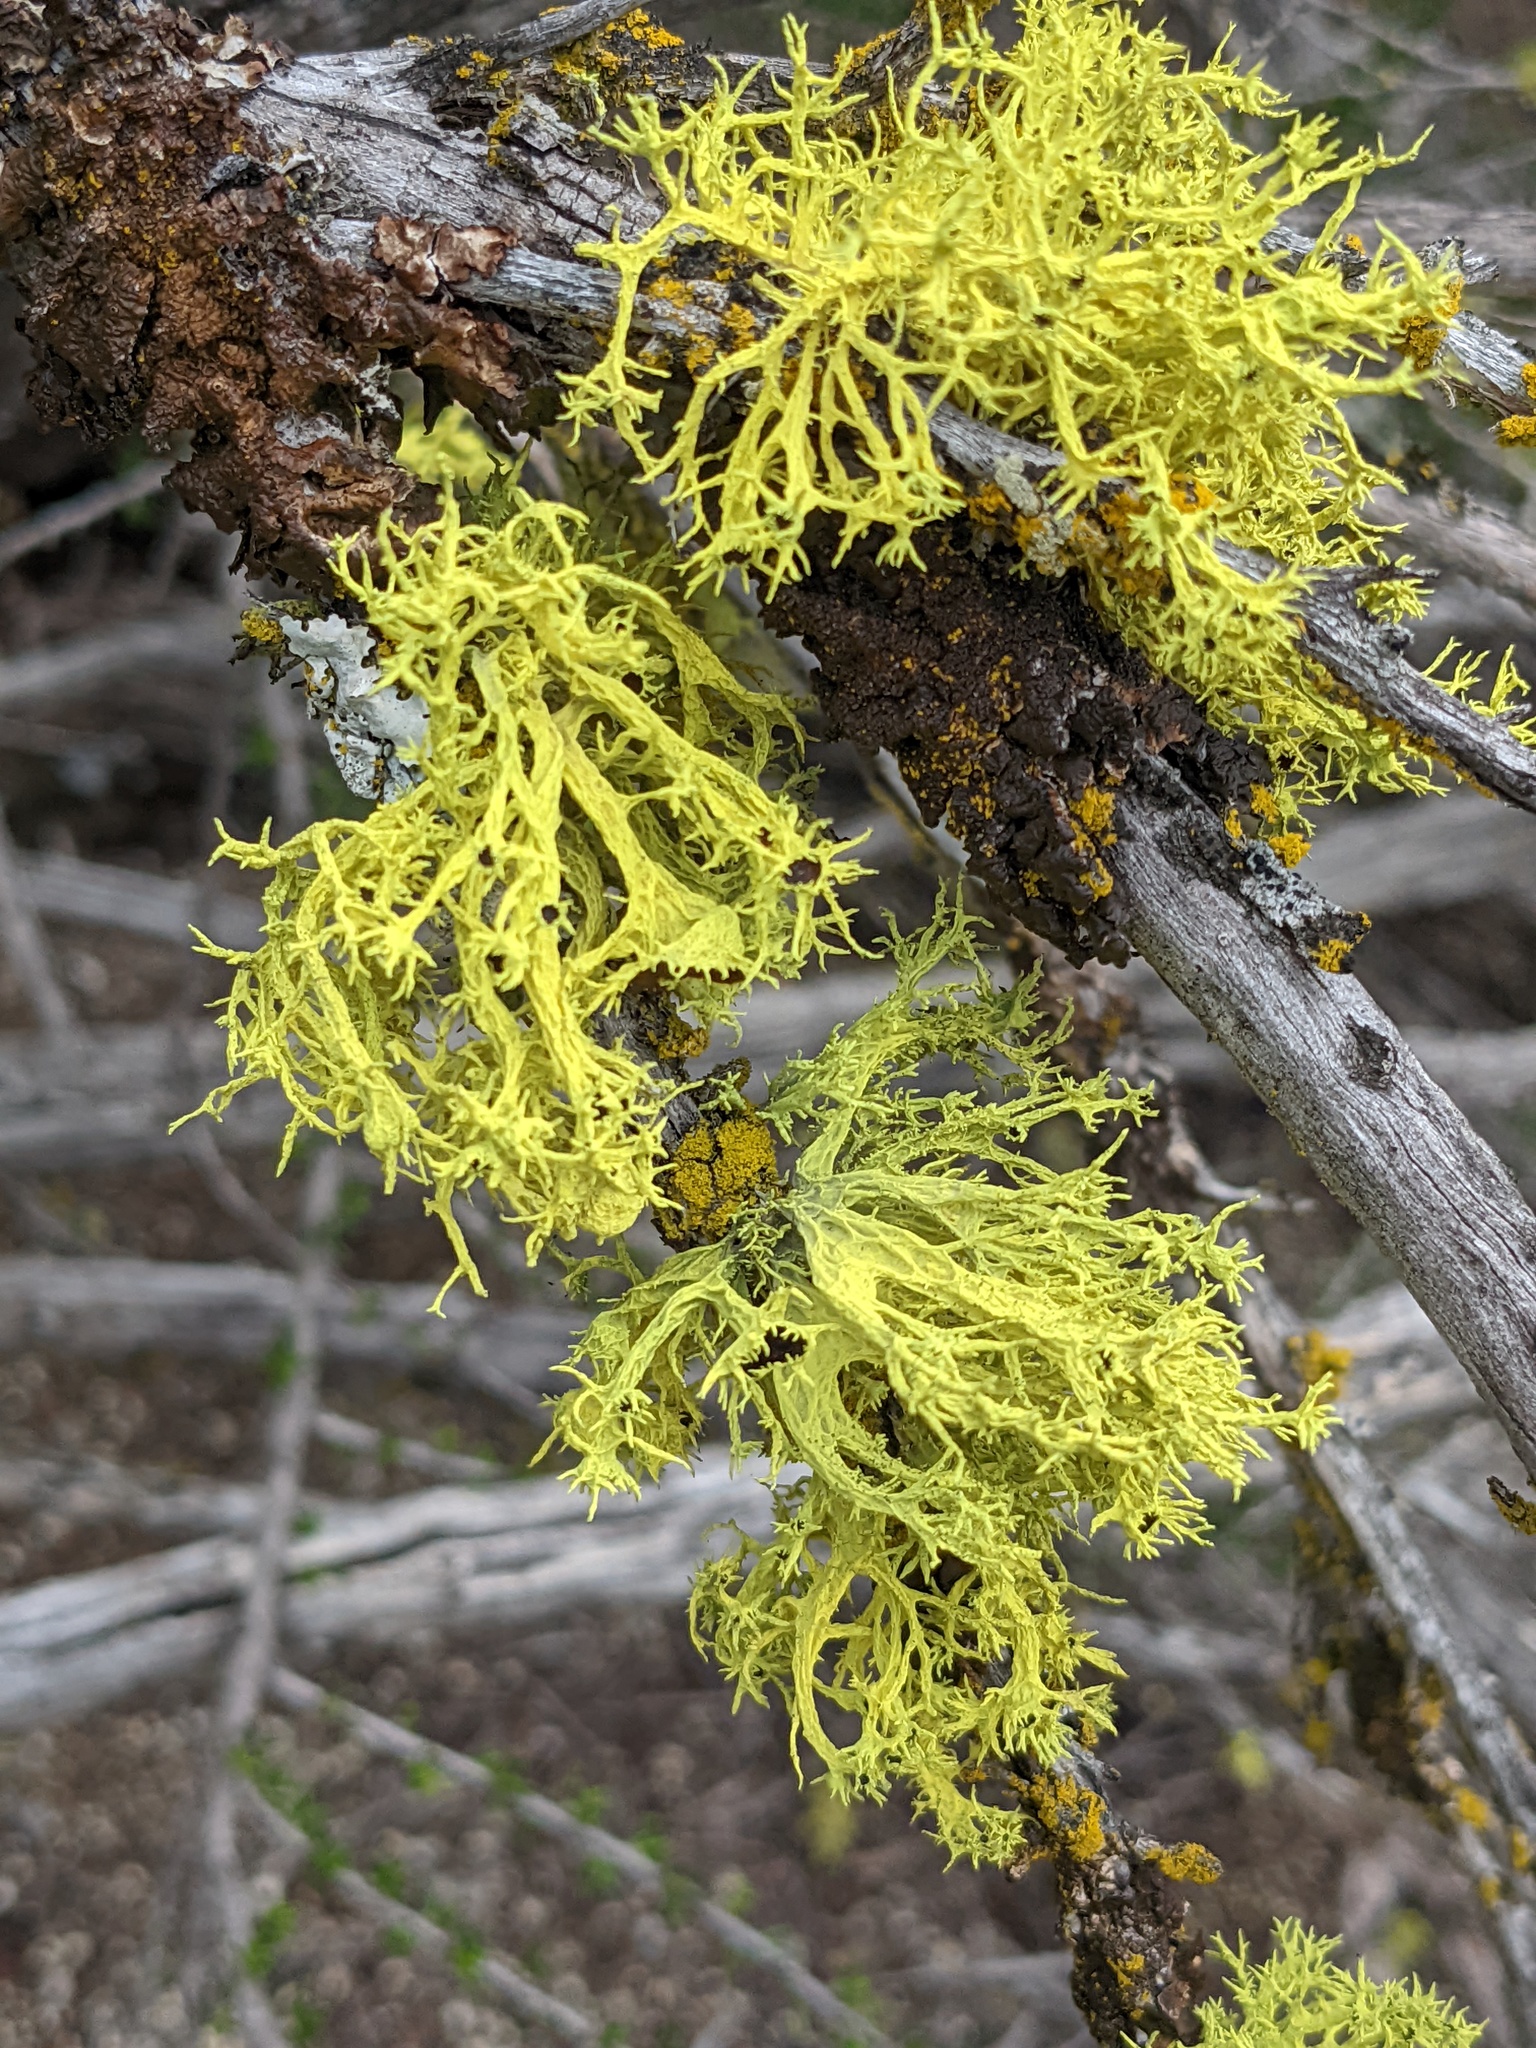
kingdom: Fungi
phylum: Ascomycota
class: Lecanoromycetes
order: Lecanorales
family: Parmeliaceae
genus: Letharia
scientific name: Letharia columbiana
